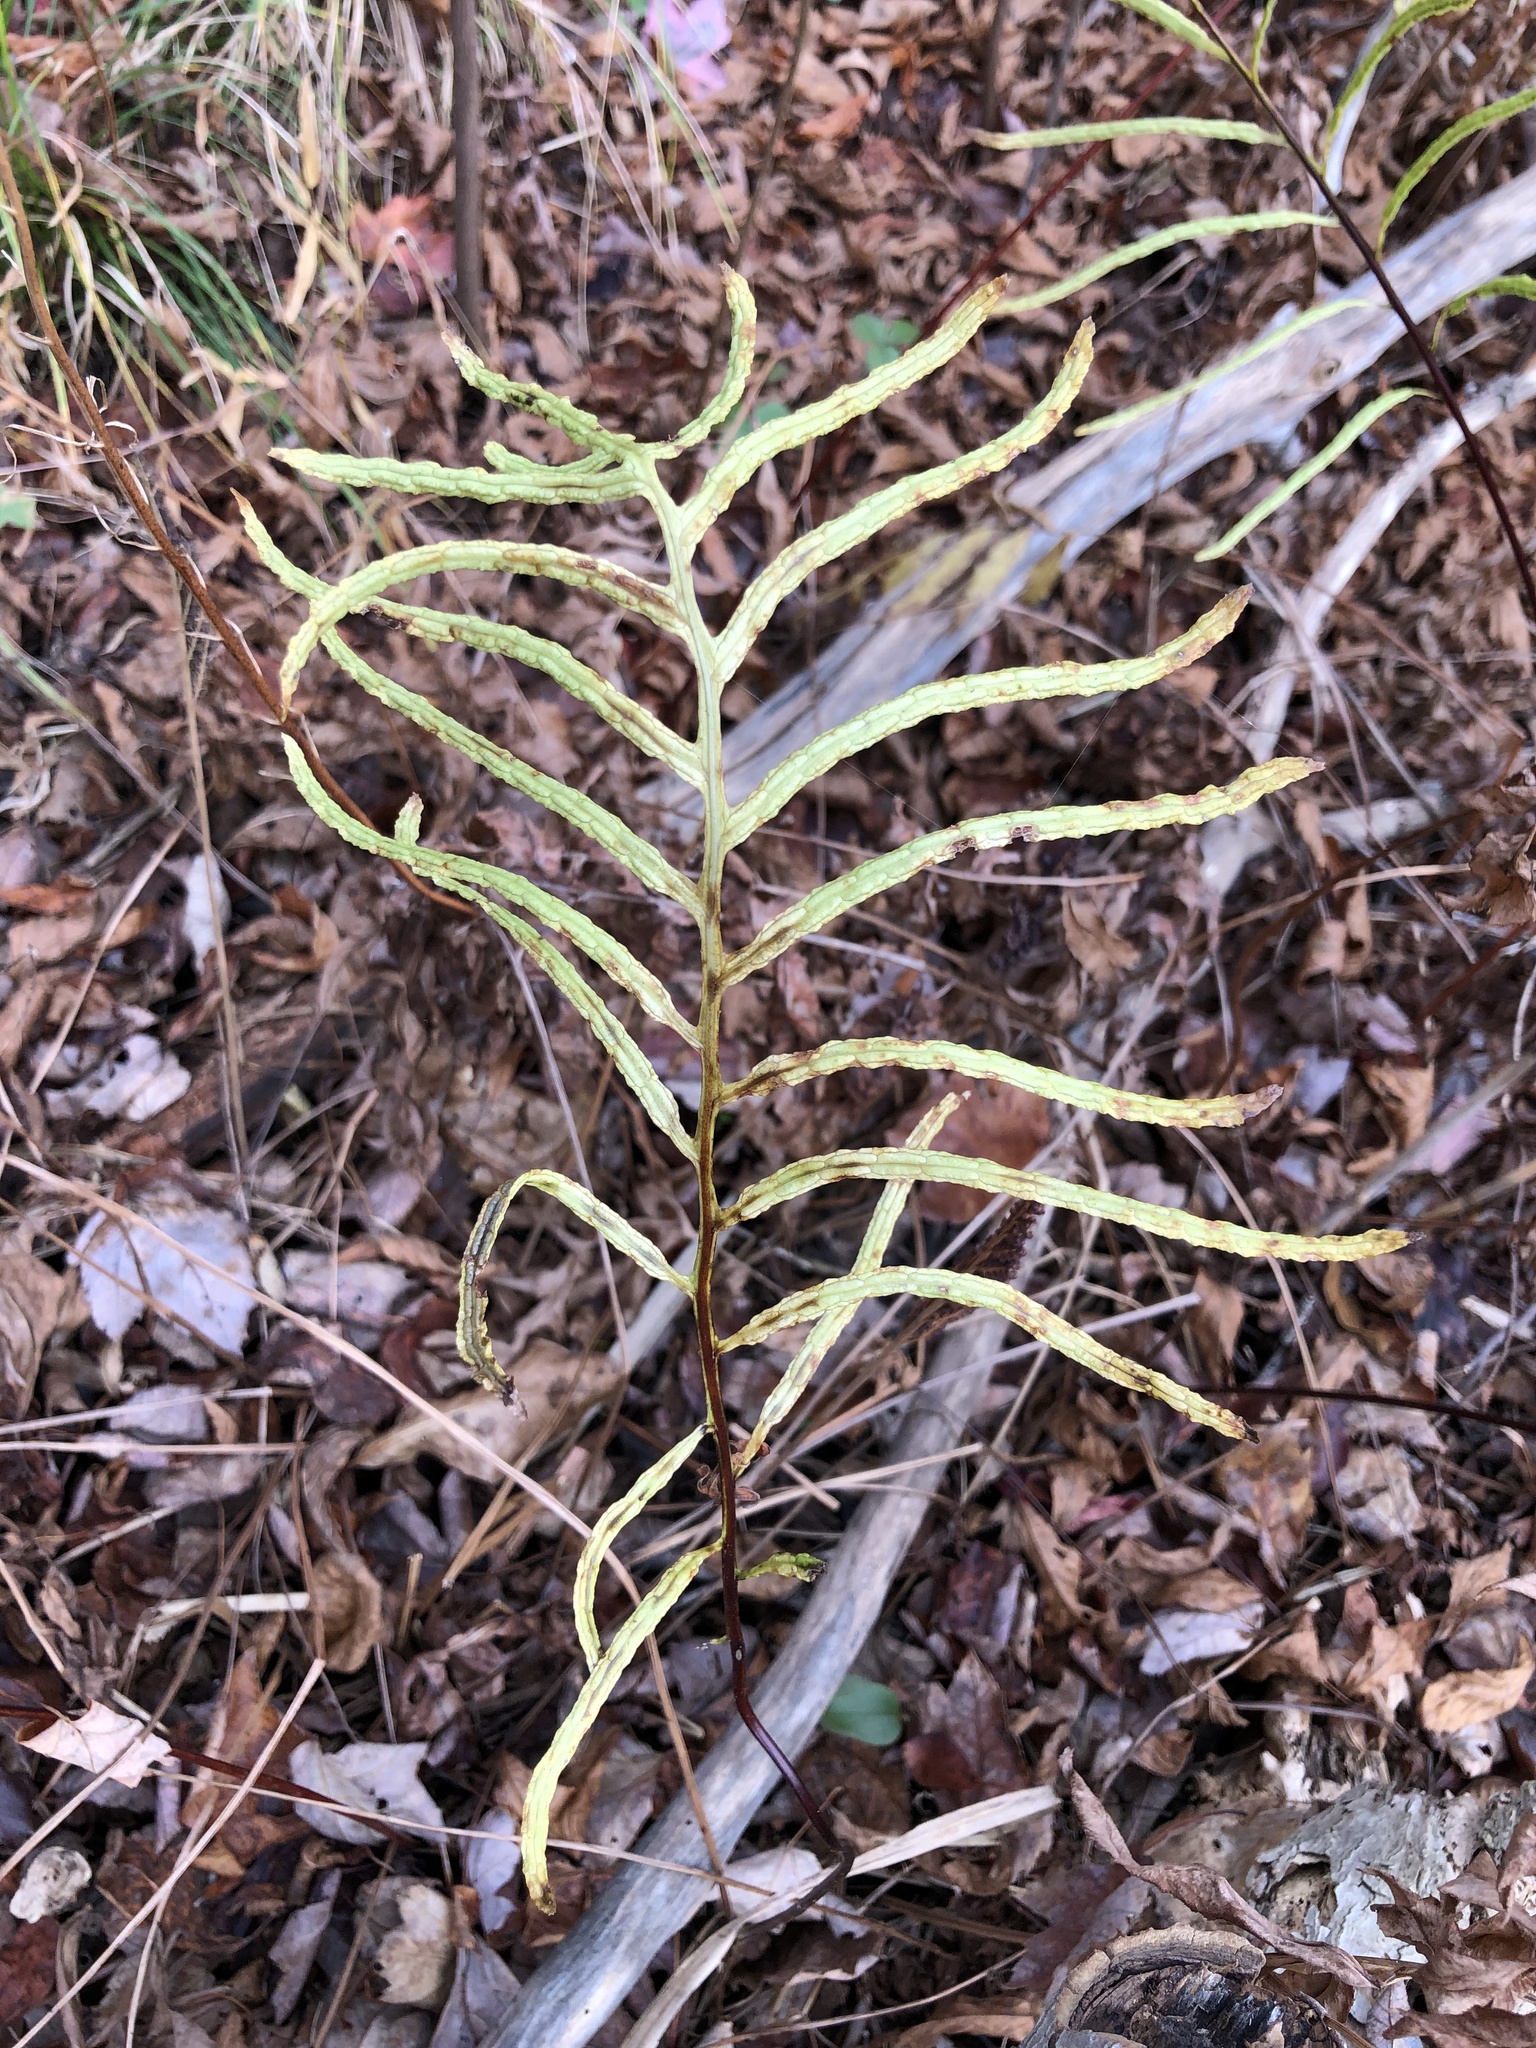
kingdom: Plantae
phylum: Tracheophyta
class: Polypodiopsida
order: Polypodiales
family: Blechnaceae
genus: Lorinseria
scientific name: Lorinseria areolata
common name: Dwarf chain fern
